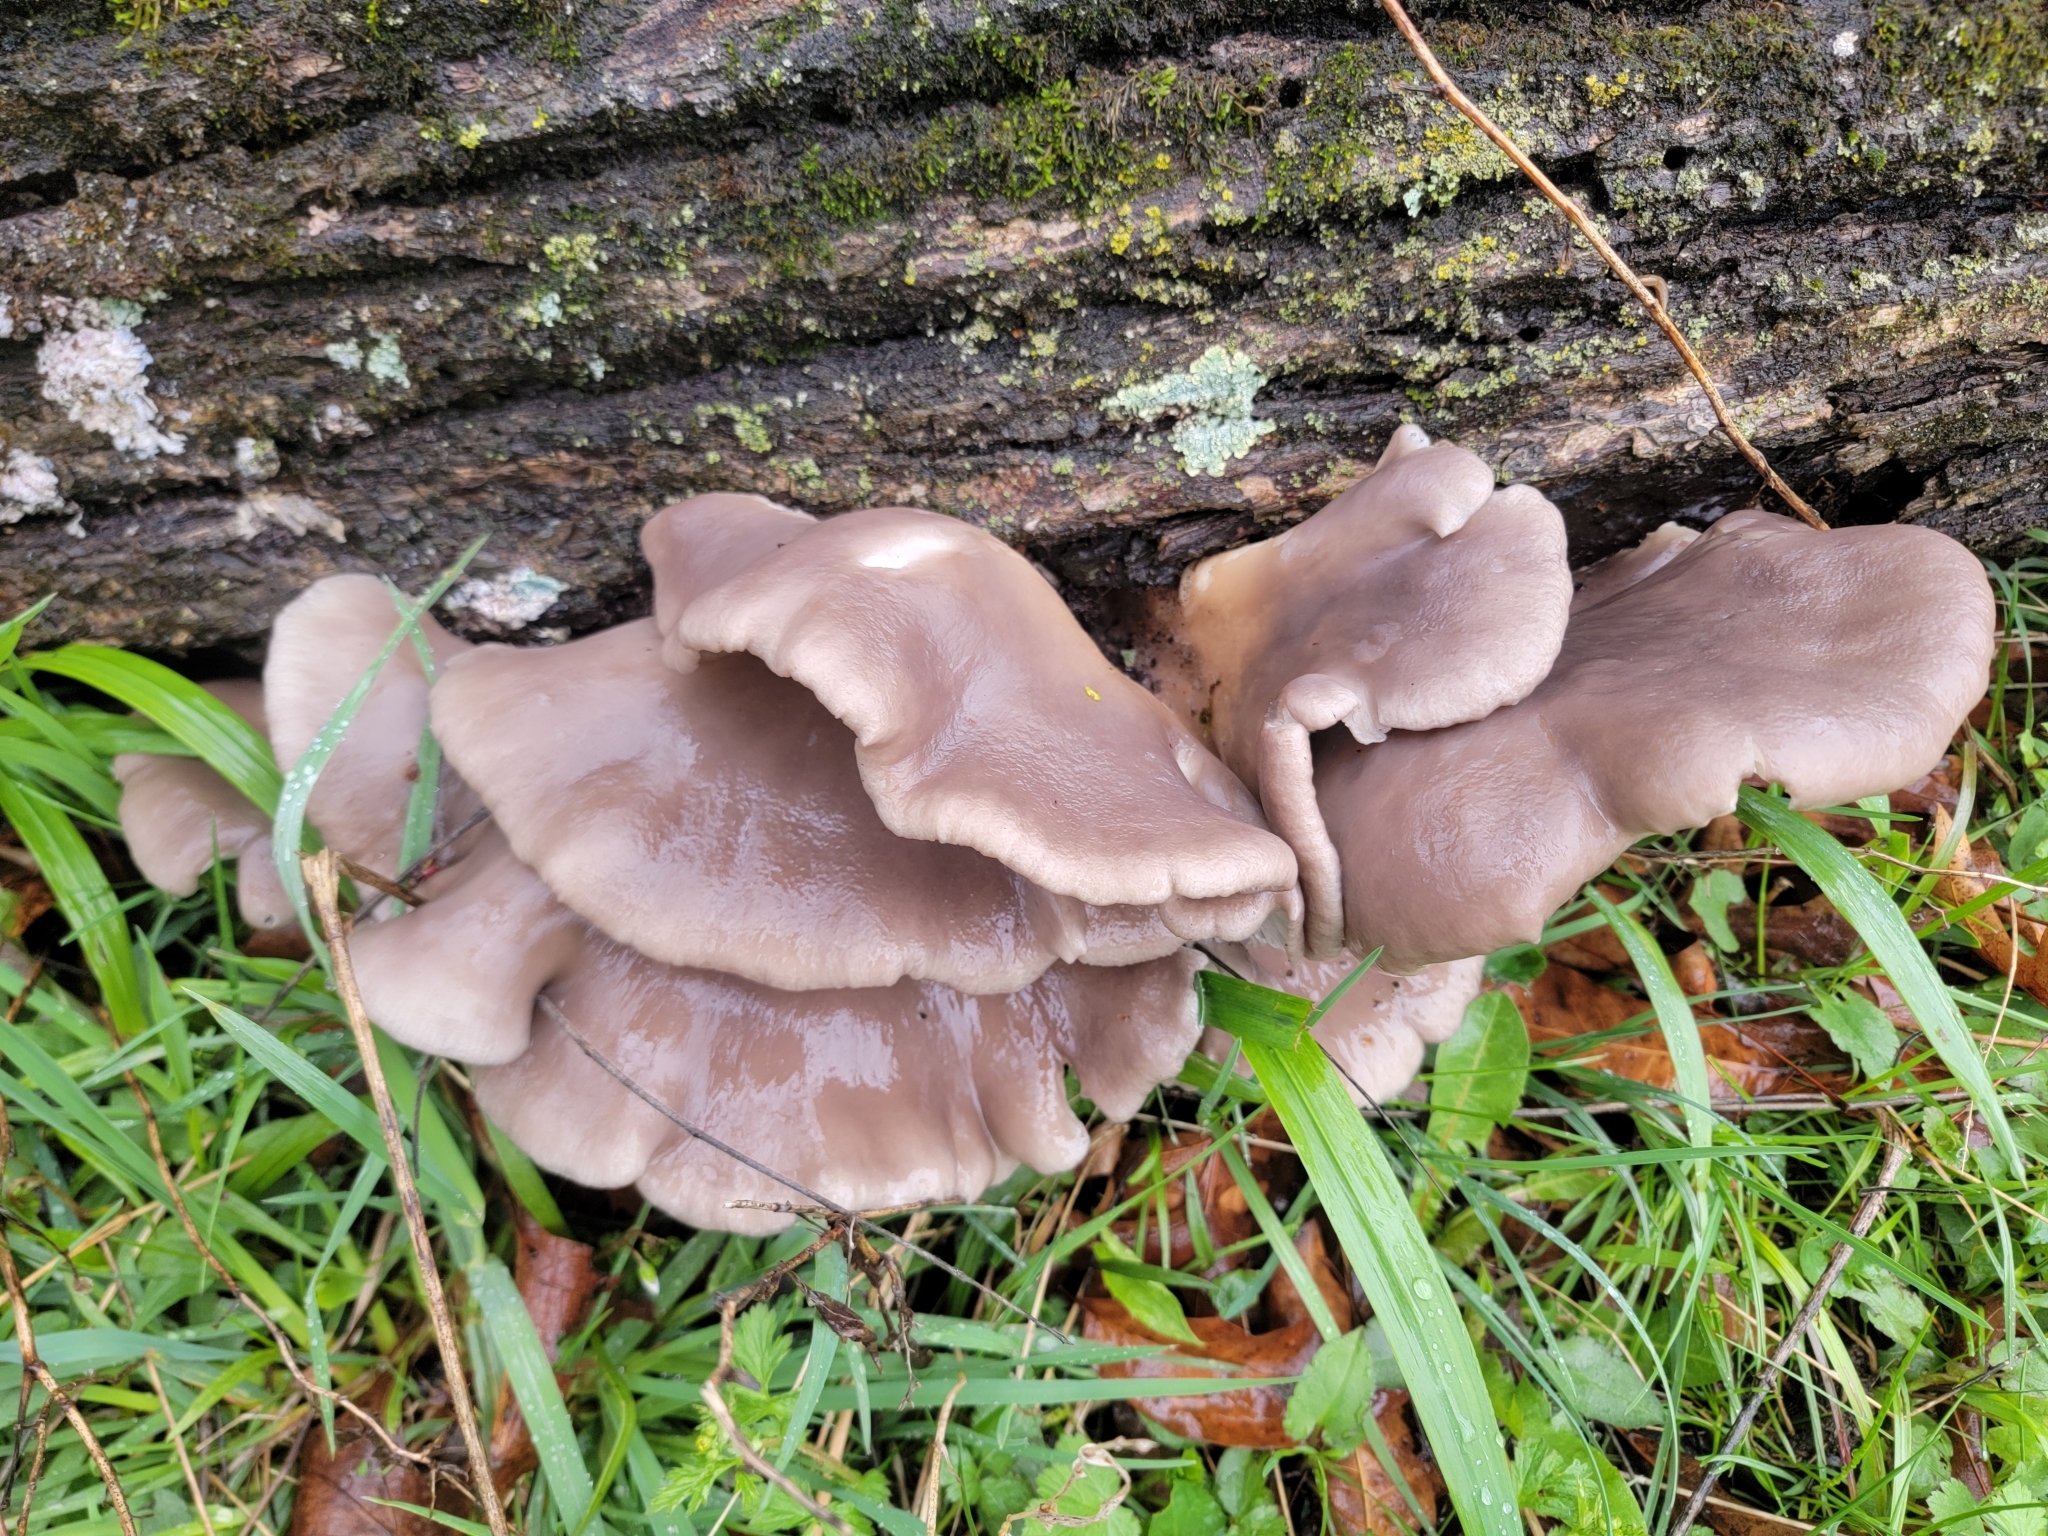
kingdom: Fungi
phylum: Basidiomycota
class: Agaricomycetes
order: Agaricales
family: Pleurotaceae
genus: Pleurotus
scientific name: Pleurotus ostreatus
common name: Oyster mushroom
